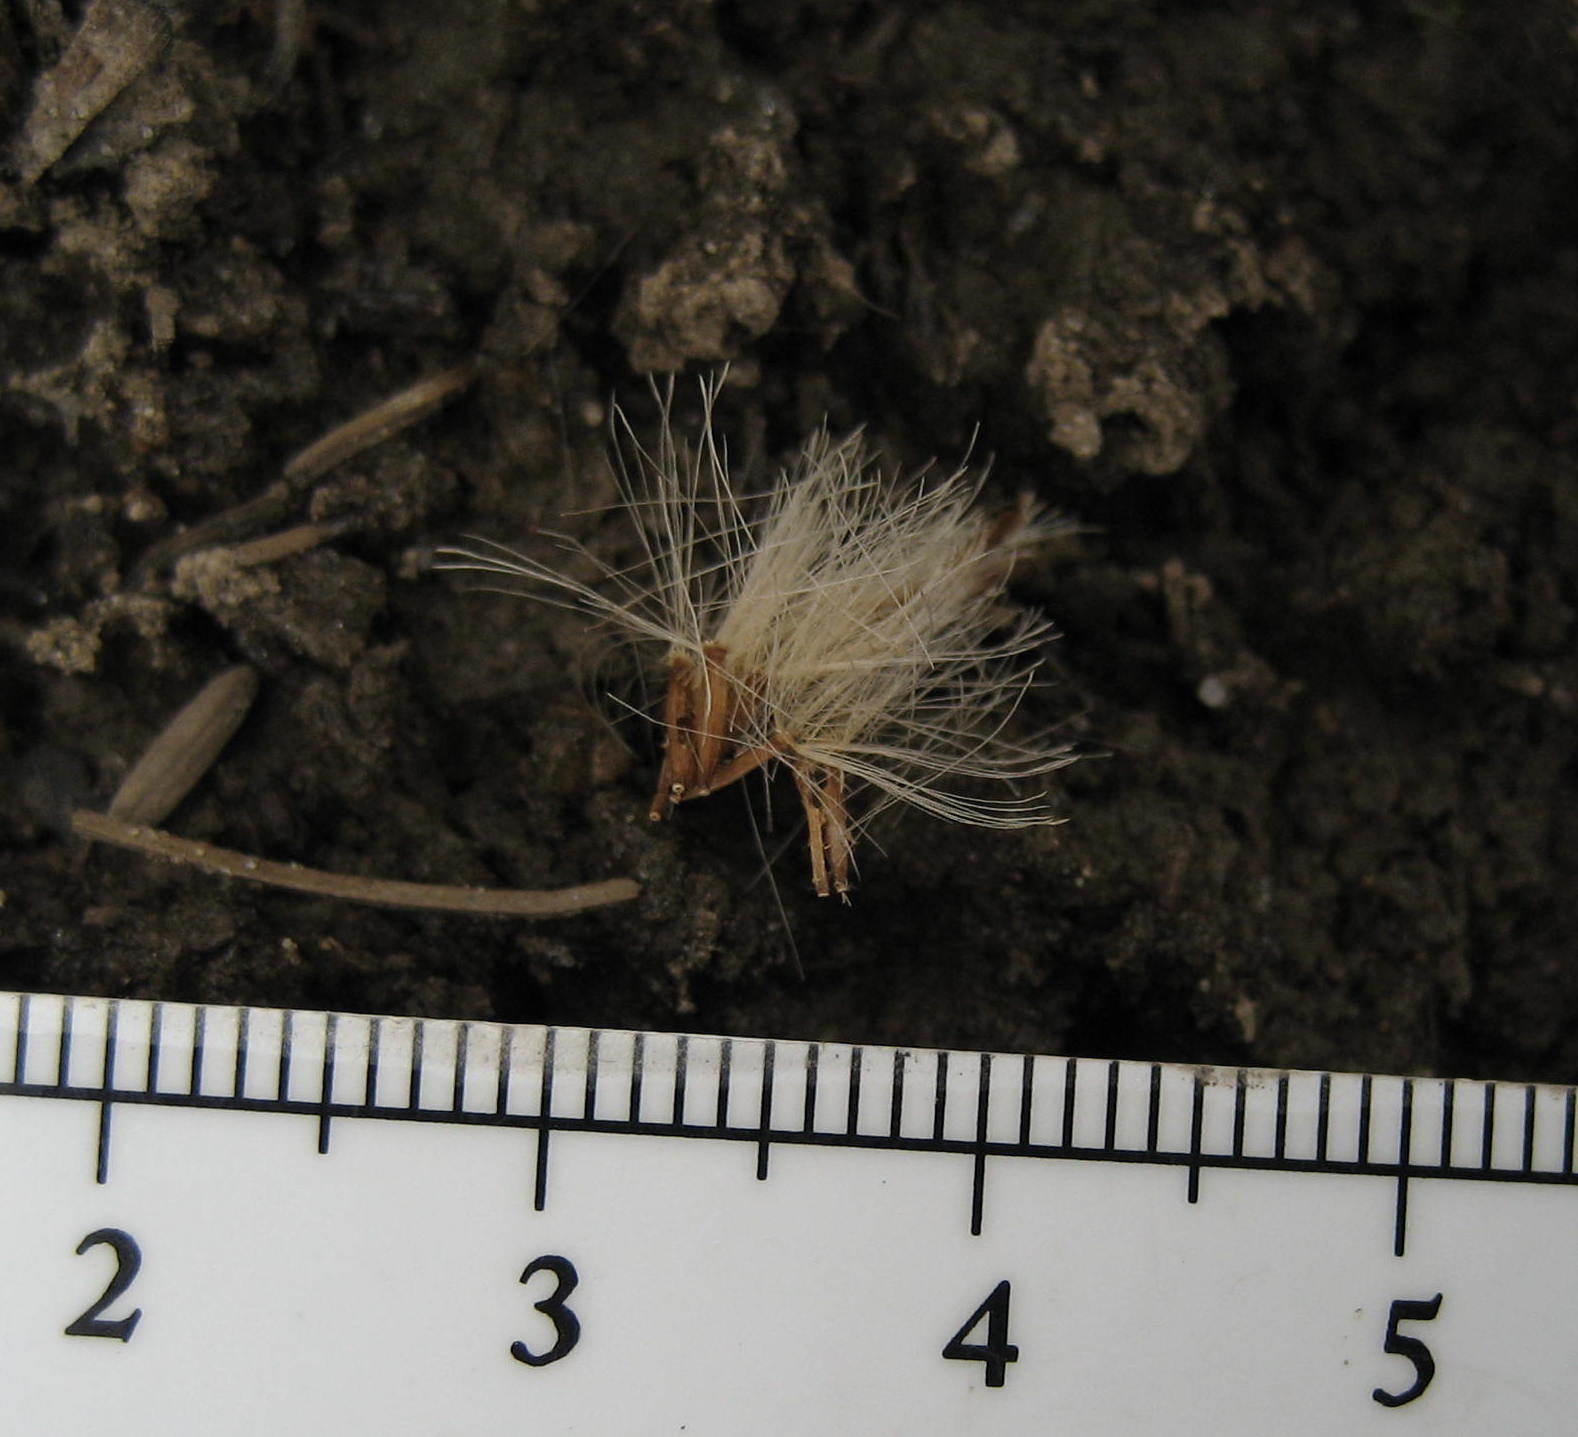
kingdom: Plantae
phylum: Tracheophyta
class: Magnoliopsida
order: Asterales
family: Asteraceae
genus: Doellingeria
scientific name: Doellingeria umbellata
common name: Flat-top white aster
